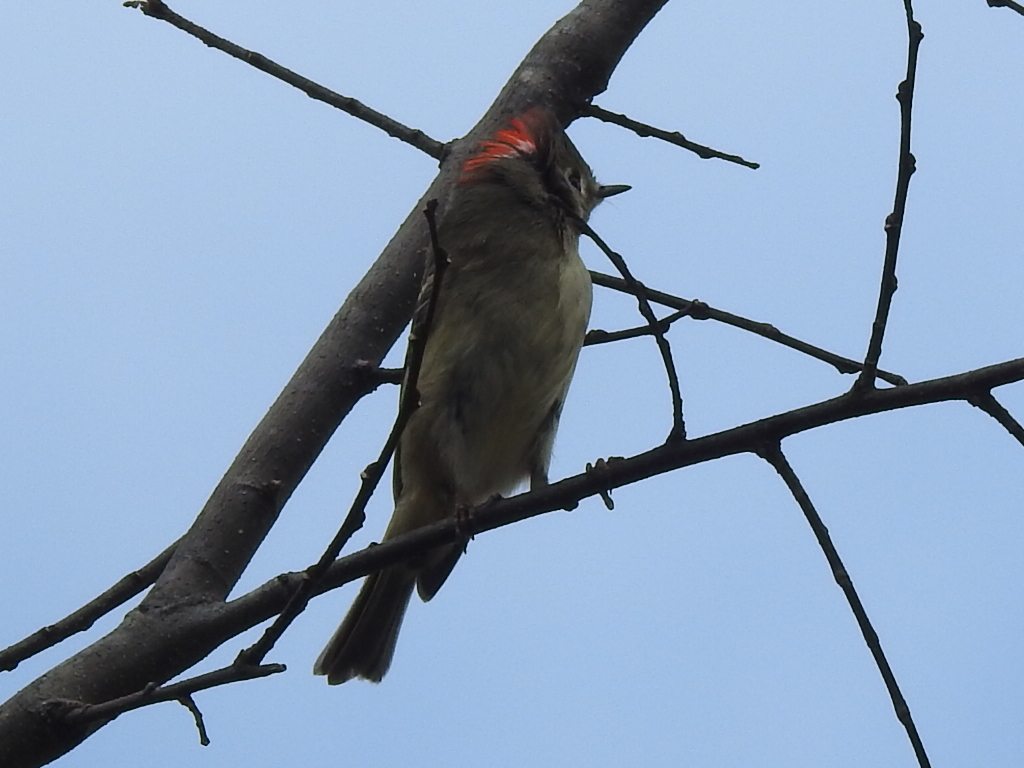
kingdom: Animalia
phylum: Chordata
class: Aves
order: Passeriformes
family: Regulidae
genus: Regulus
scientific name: Regulus calendula
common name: Ruby-crowned kinglet
